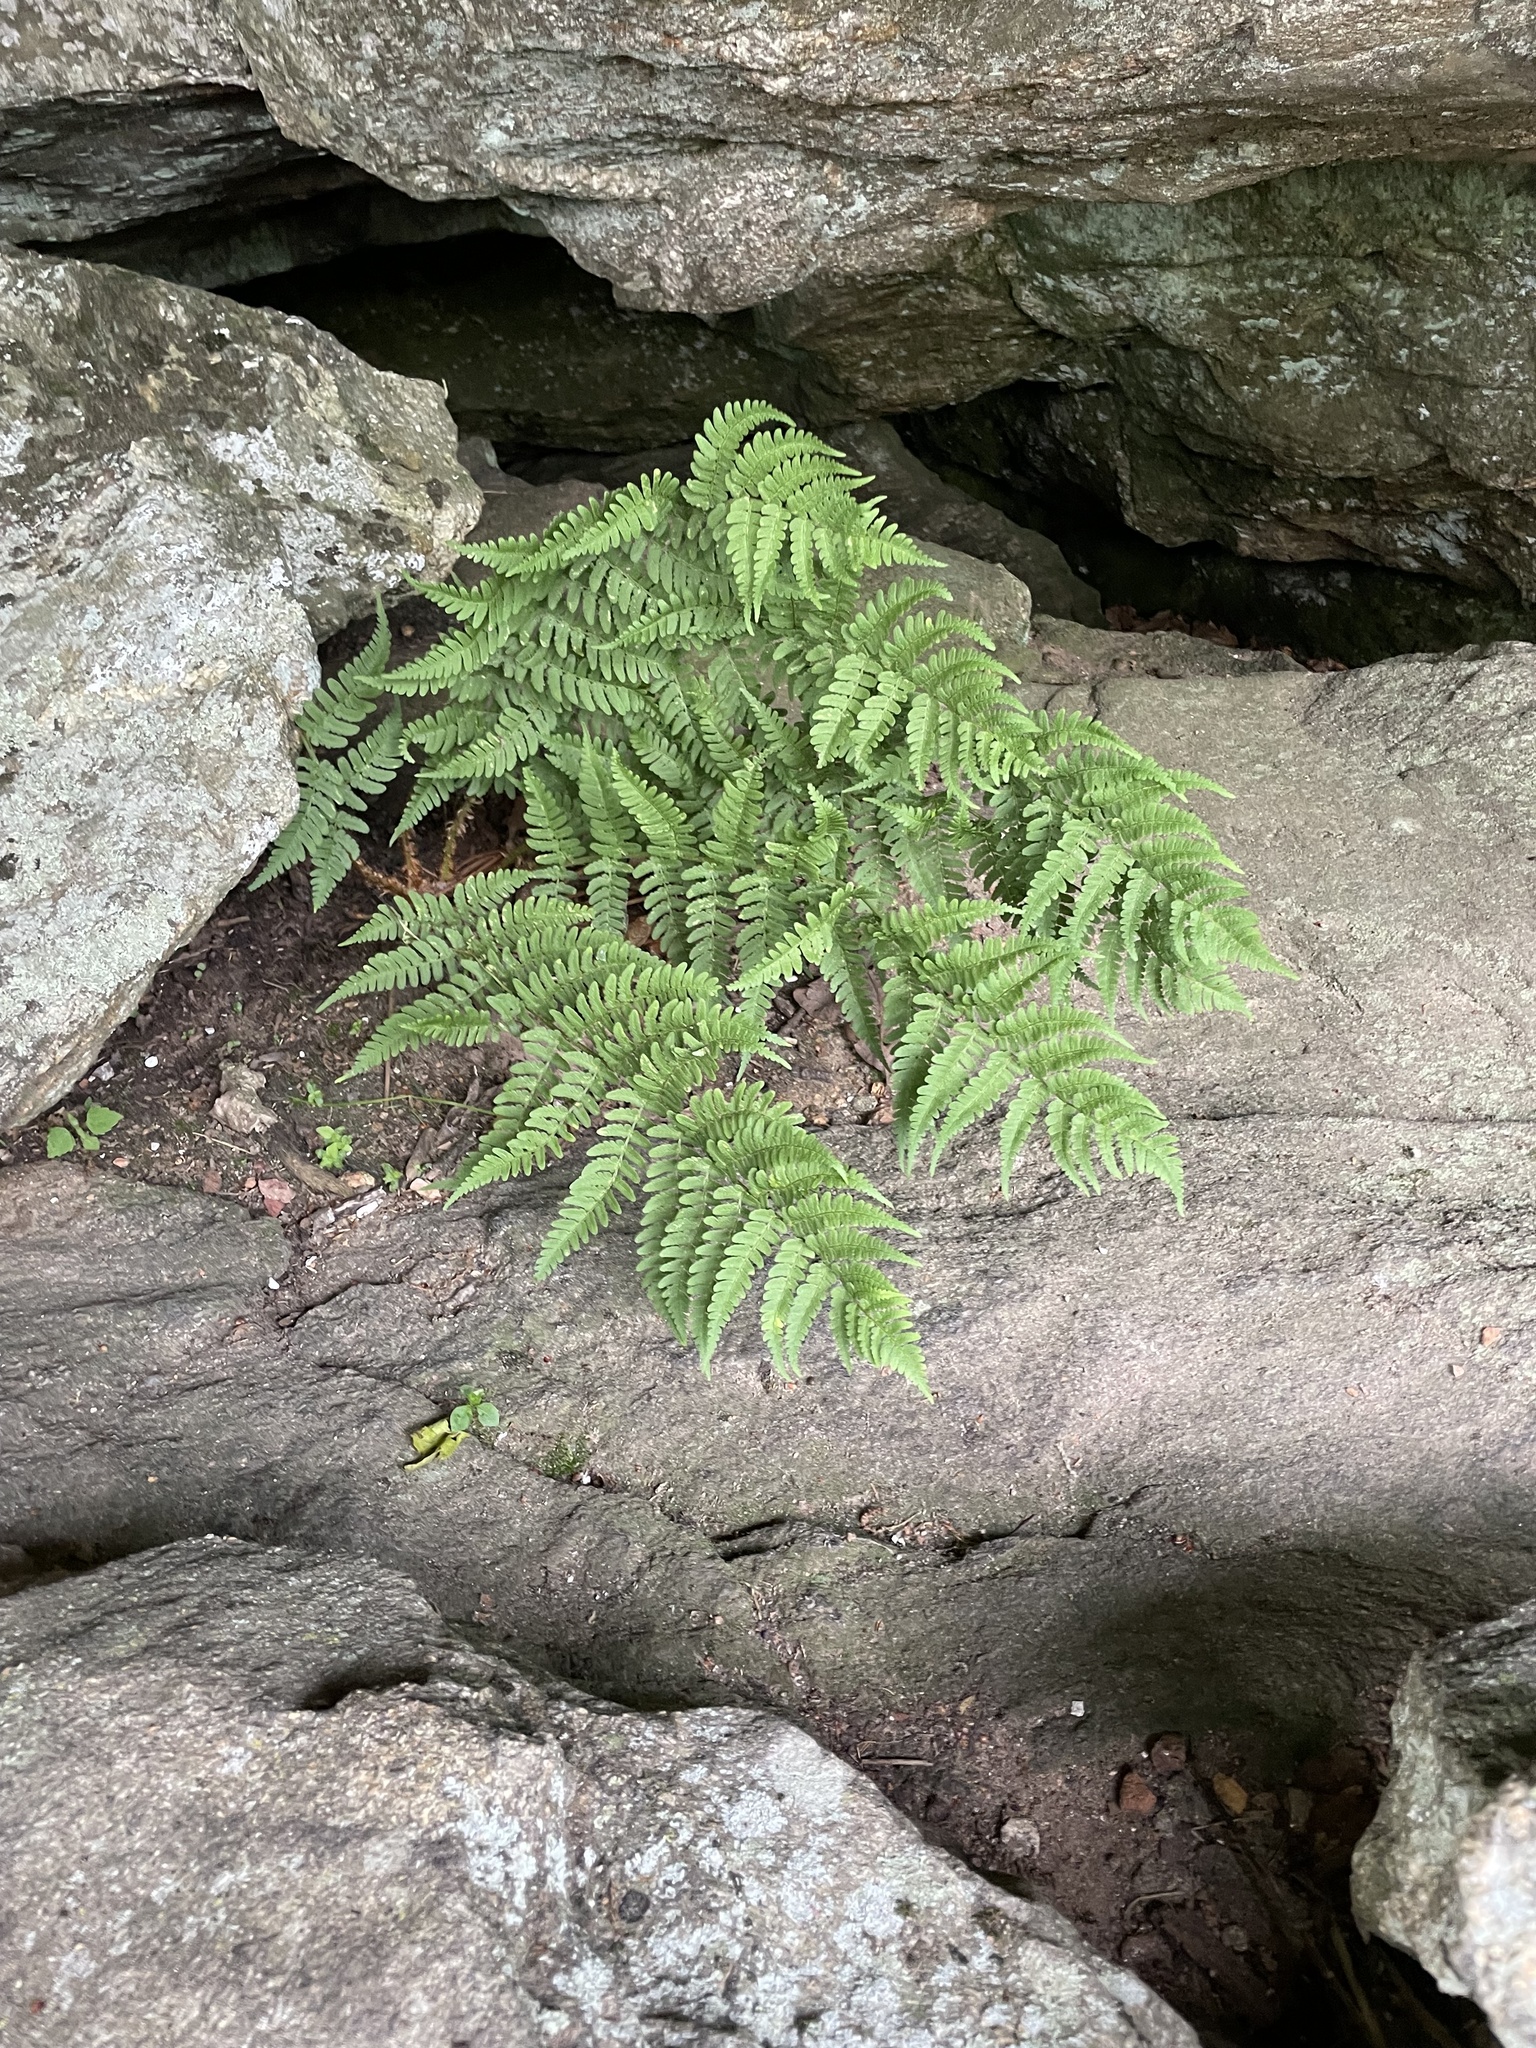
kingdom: Plantae
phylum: Tracheophyta
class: Polypodiopsida
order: Polypodiales
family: Dryopteridaceae
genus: Dryopteris
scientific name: Dryopteris marginalis
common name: Marginal wood fern
